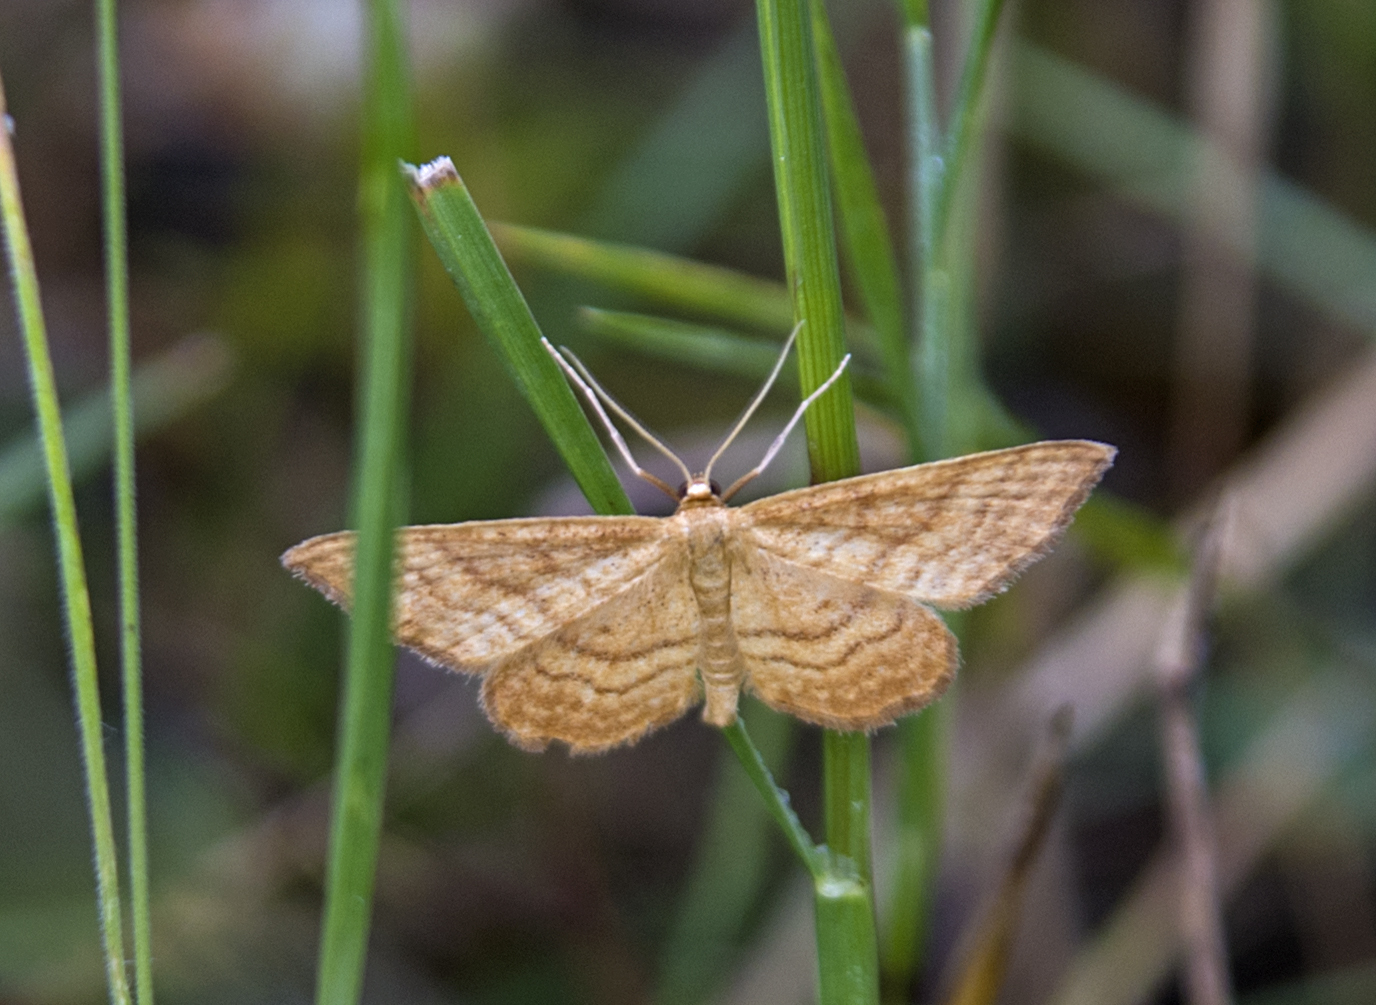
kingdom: Animalia
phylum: Arthropoda
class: Insecta
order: Lepidoptera
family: Geometridae
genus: Idaea
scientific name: Idaea ochrata
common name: Bright wave
